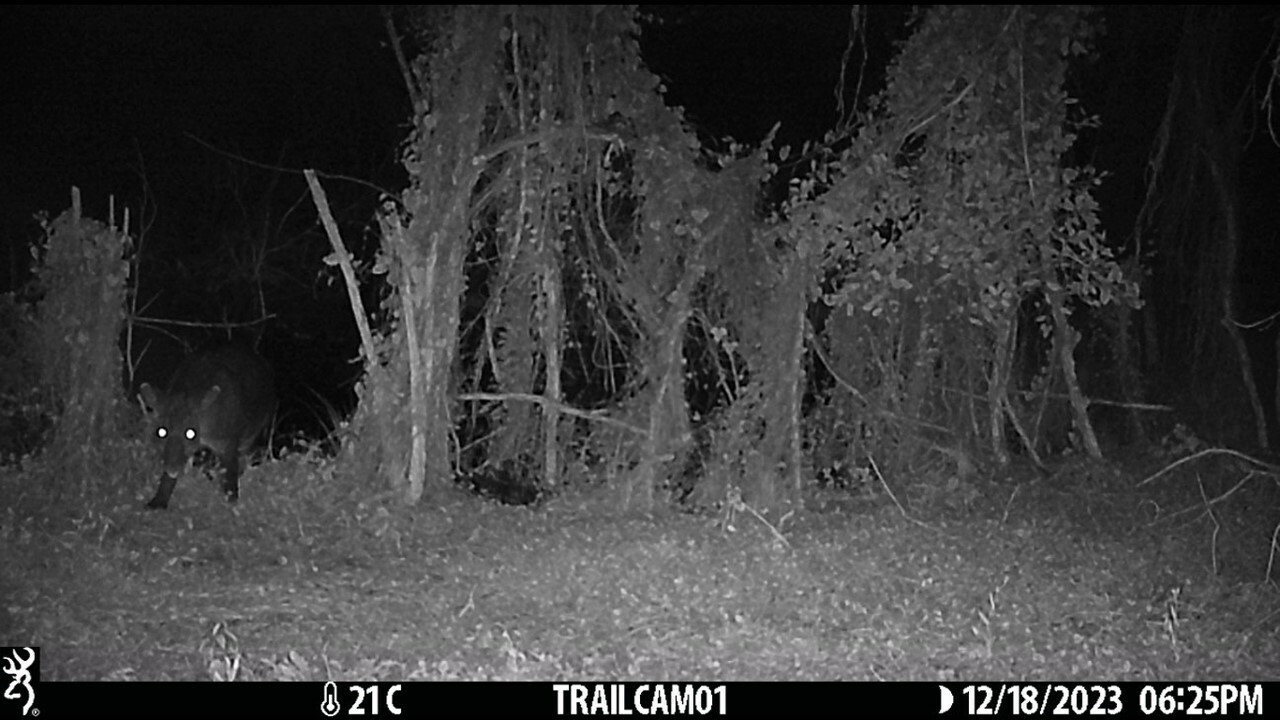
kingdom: Animalia
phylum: Chordata
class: Mammalia
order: Perissodactyla
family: Tapiridae
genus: Tapirella
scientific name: Tapirella bairdii
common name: Baird's tapir
